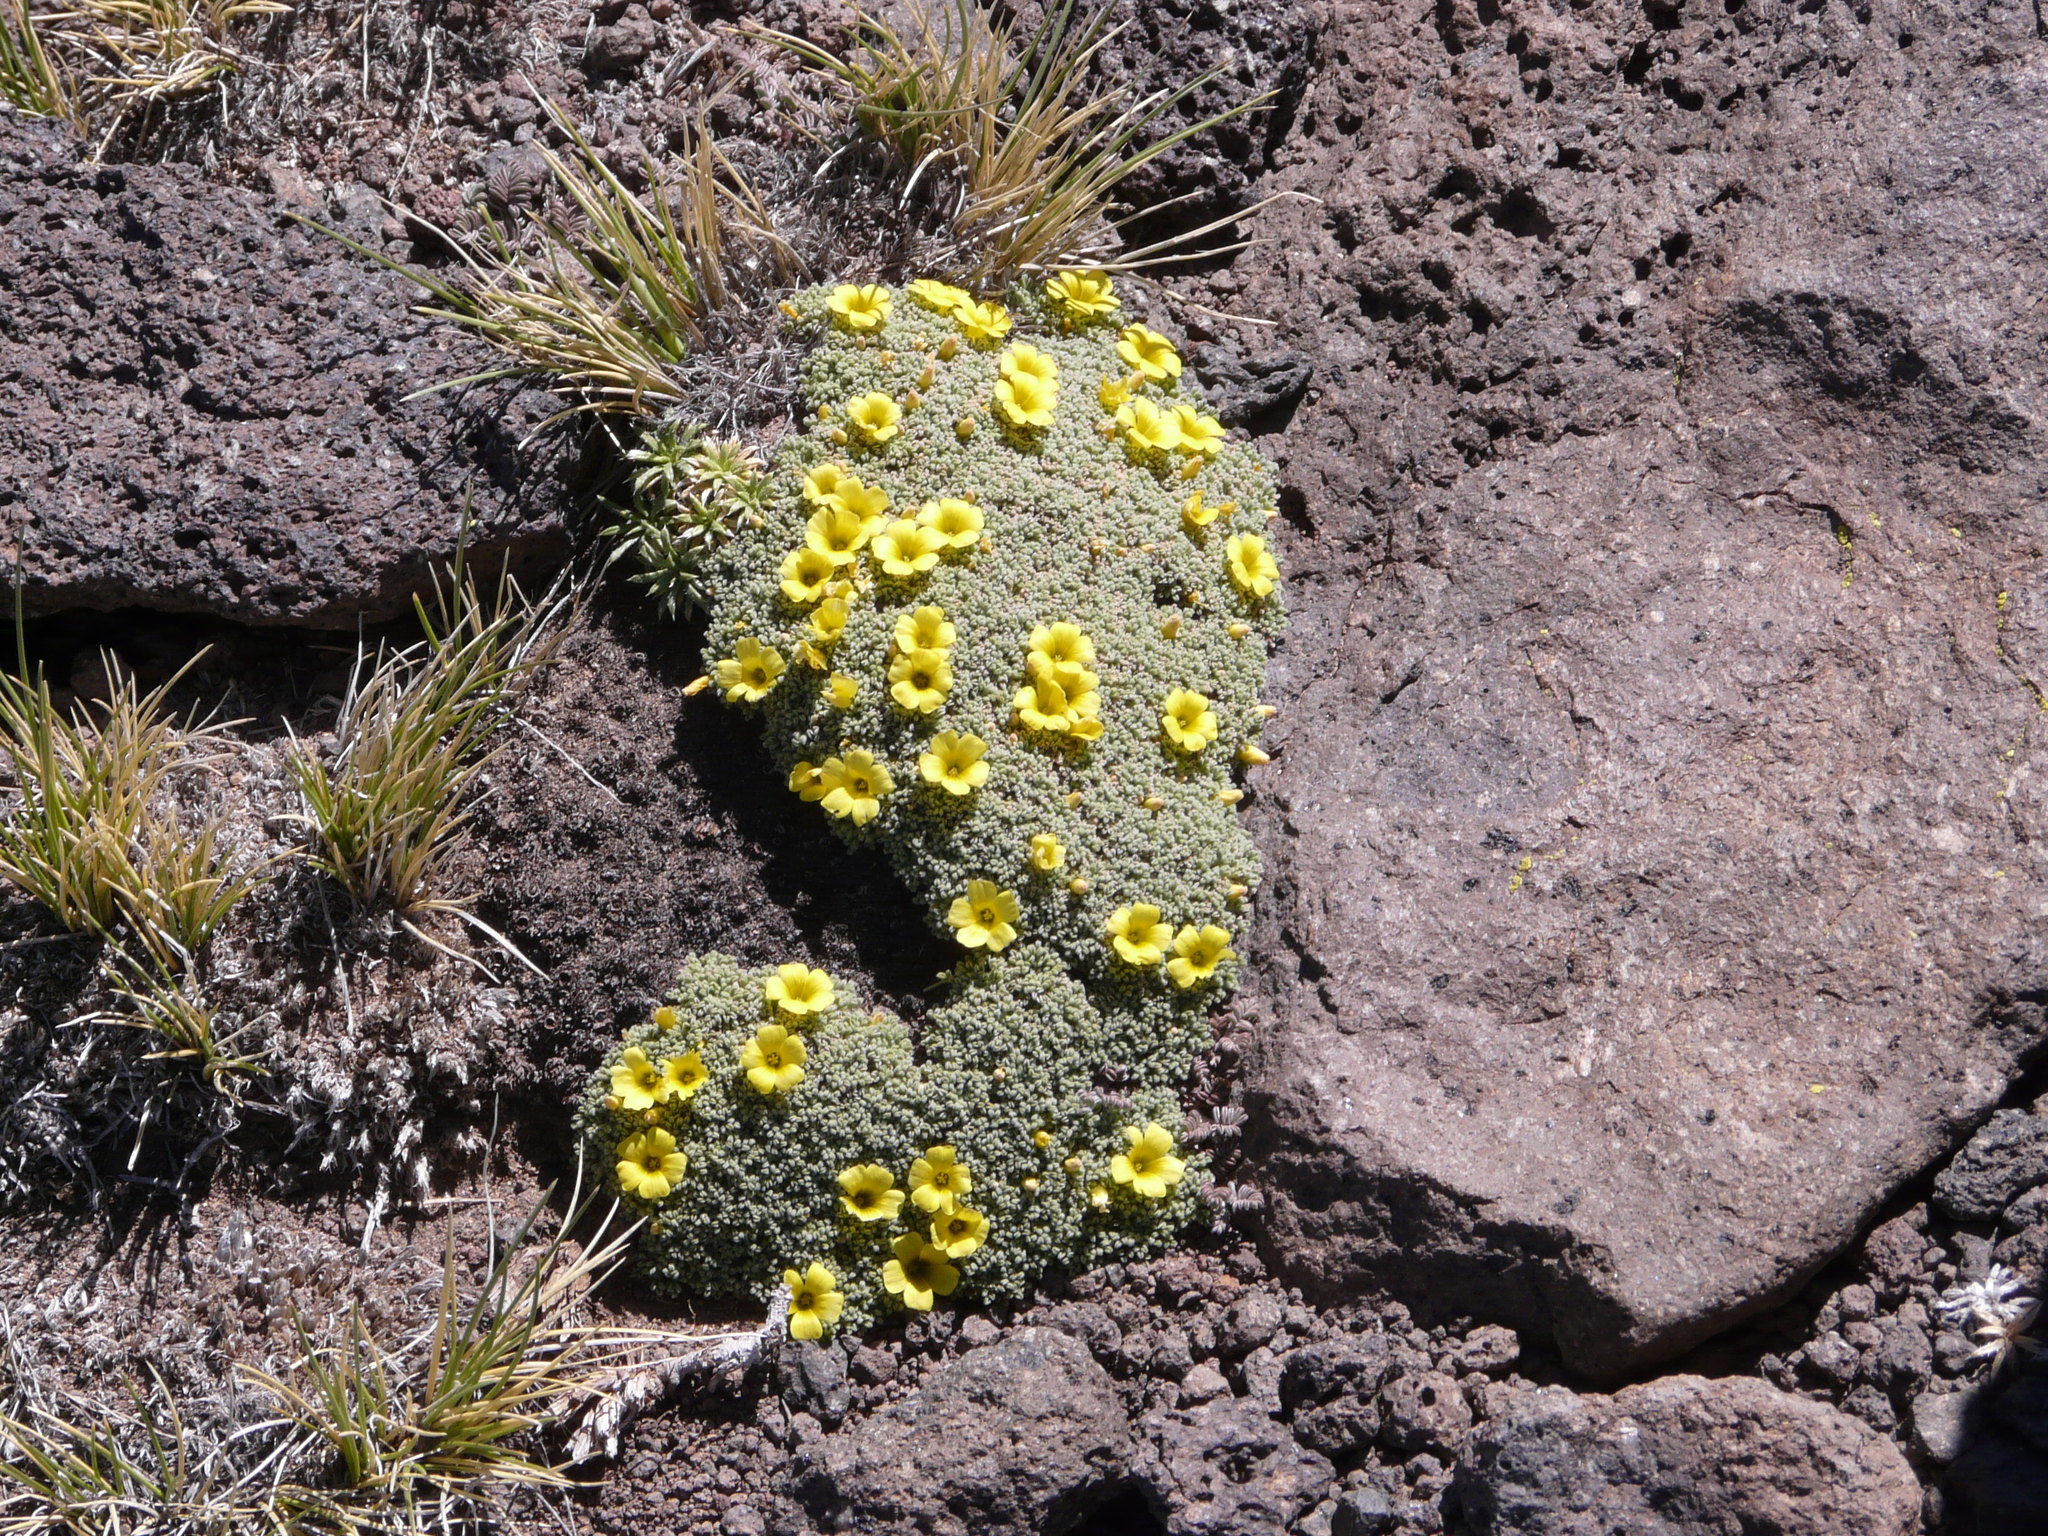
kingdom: Plantae
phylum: Tracheophyta
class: Magnoliopsida
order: Oxalidales
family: Oxalidaceae
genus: Oxalis
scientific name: Oxalis erythrorhiza
